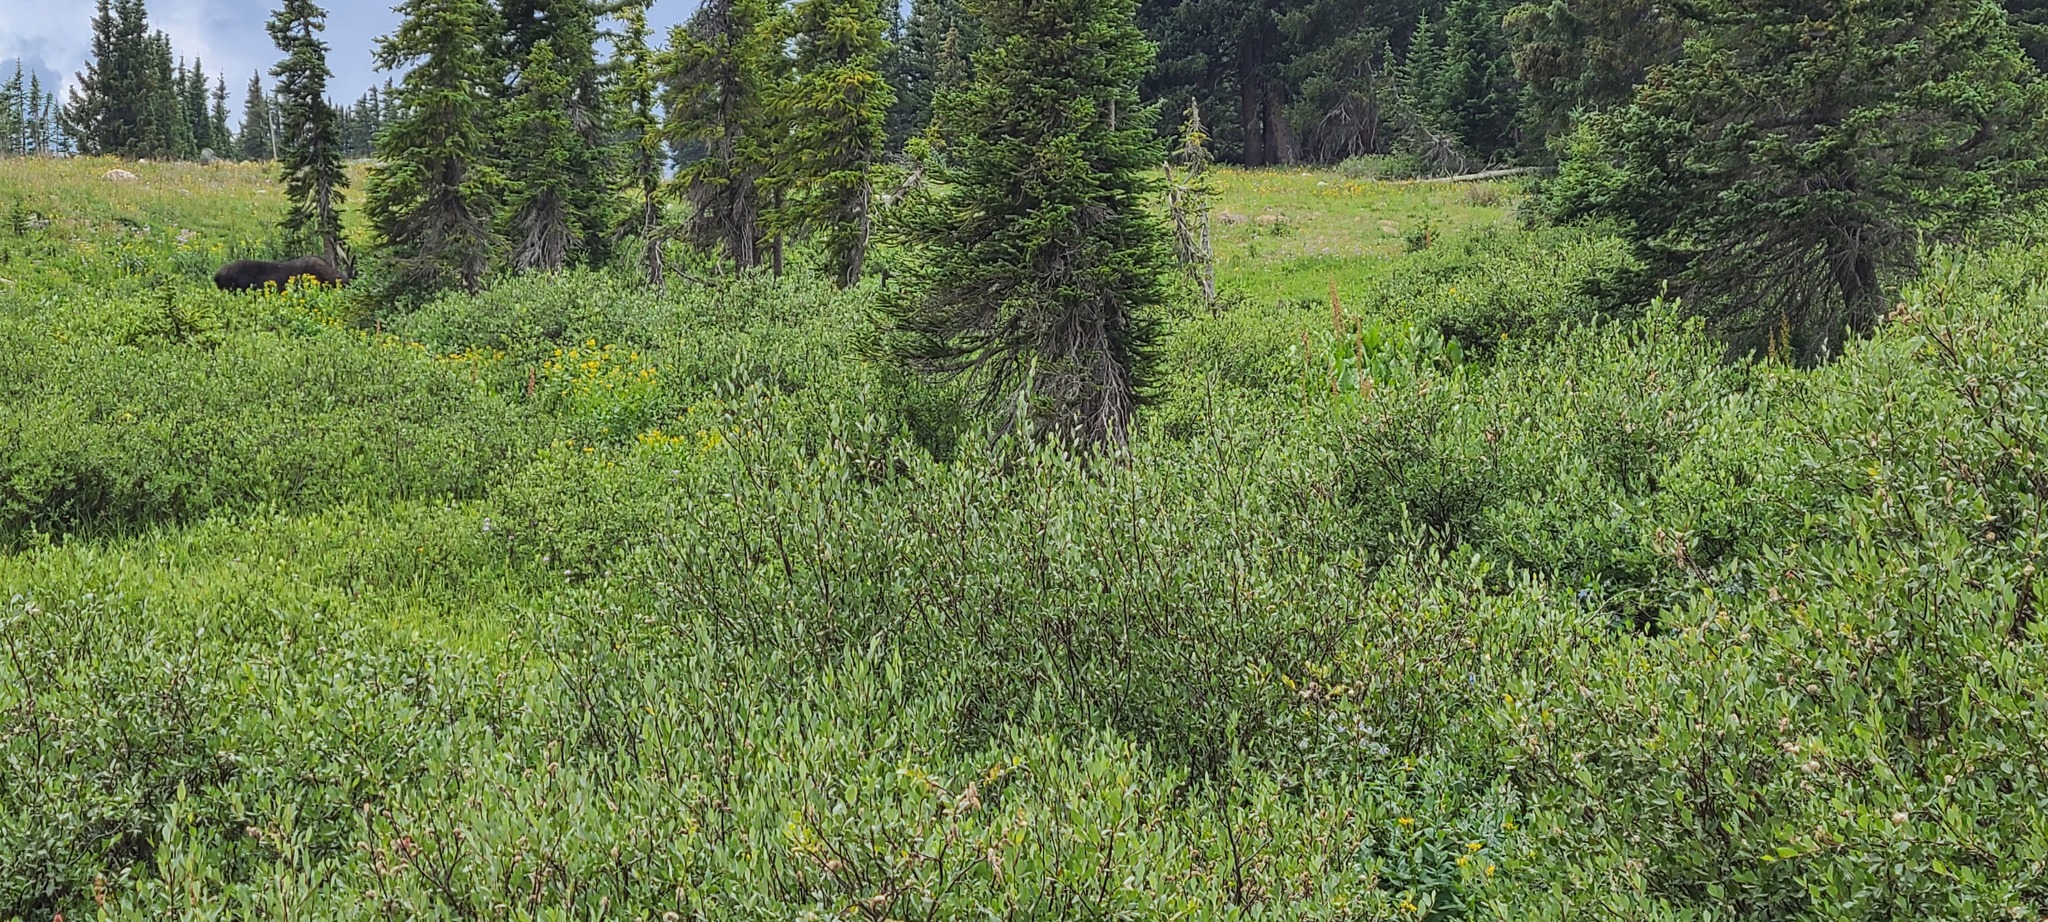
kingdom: Animalia
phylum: Chordata
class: Mammalia
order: Artiodactyla
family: Cervidae
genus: Alces
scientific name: Alces alces
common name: Moose
